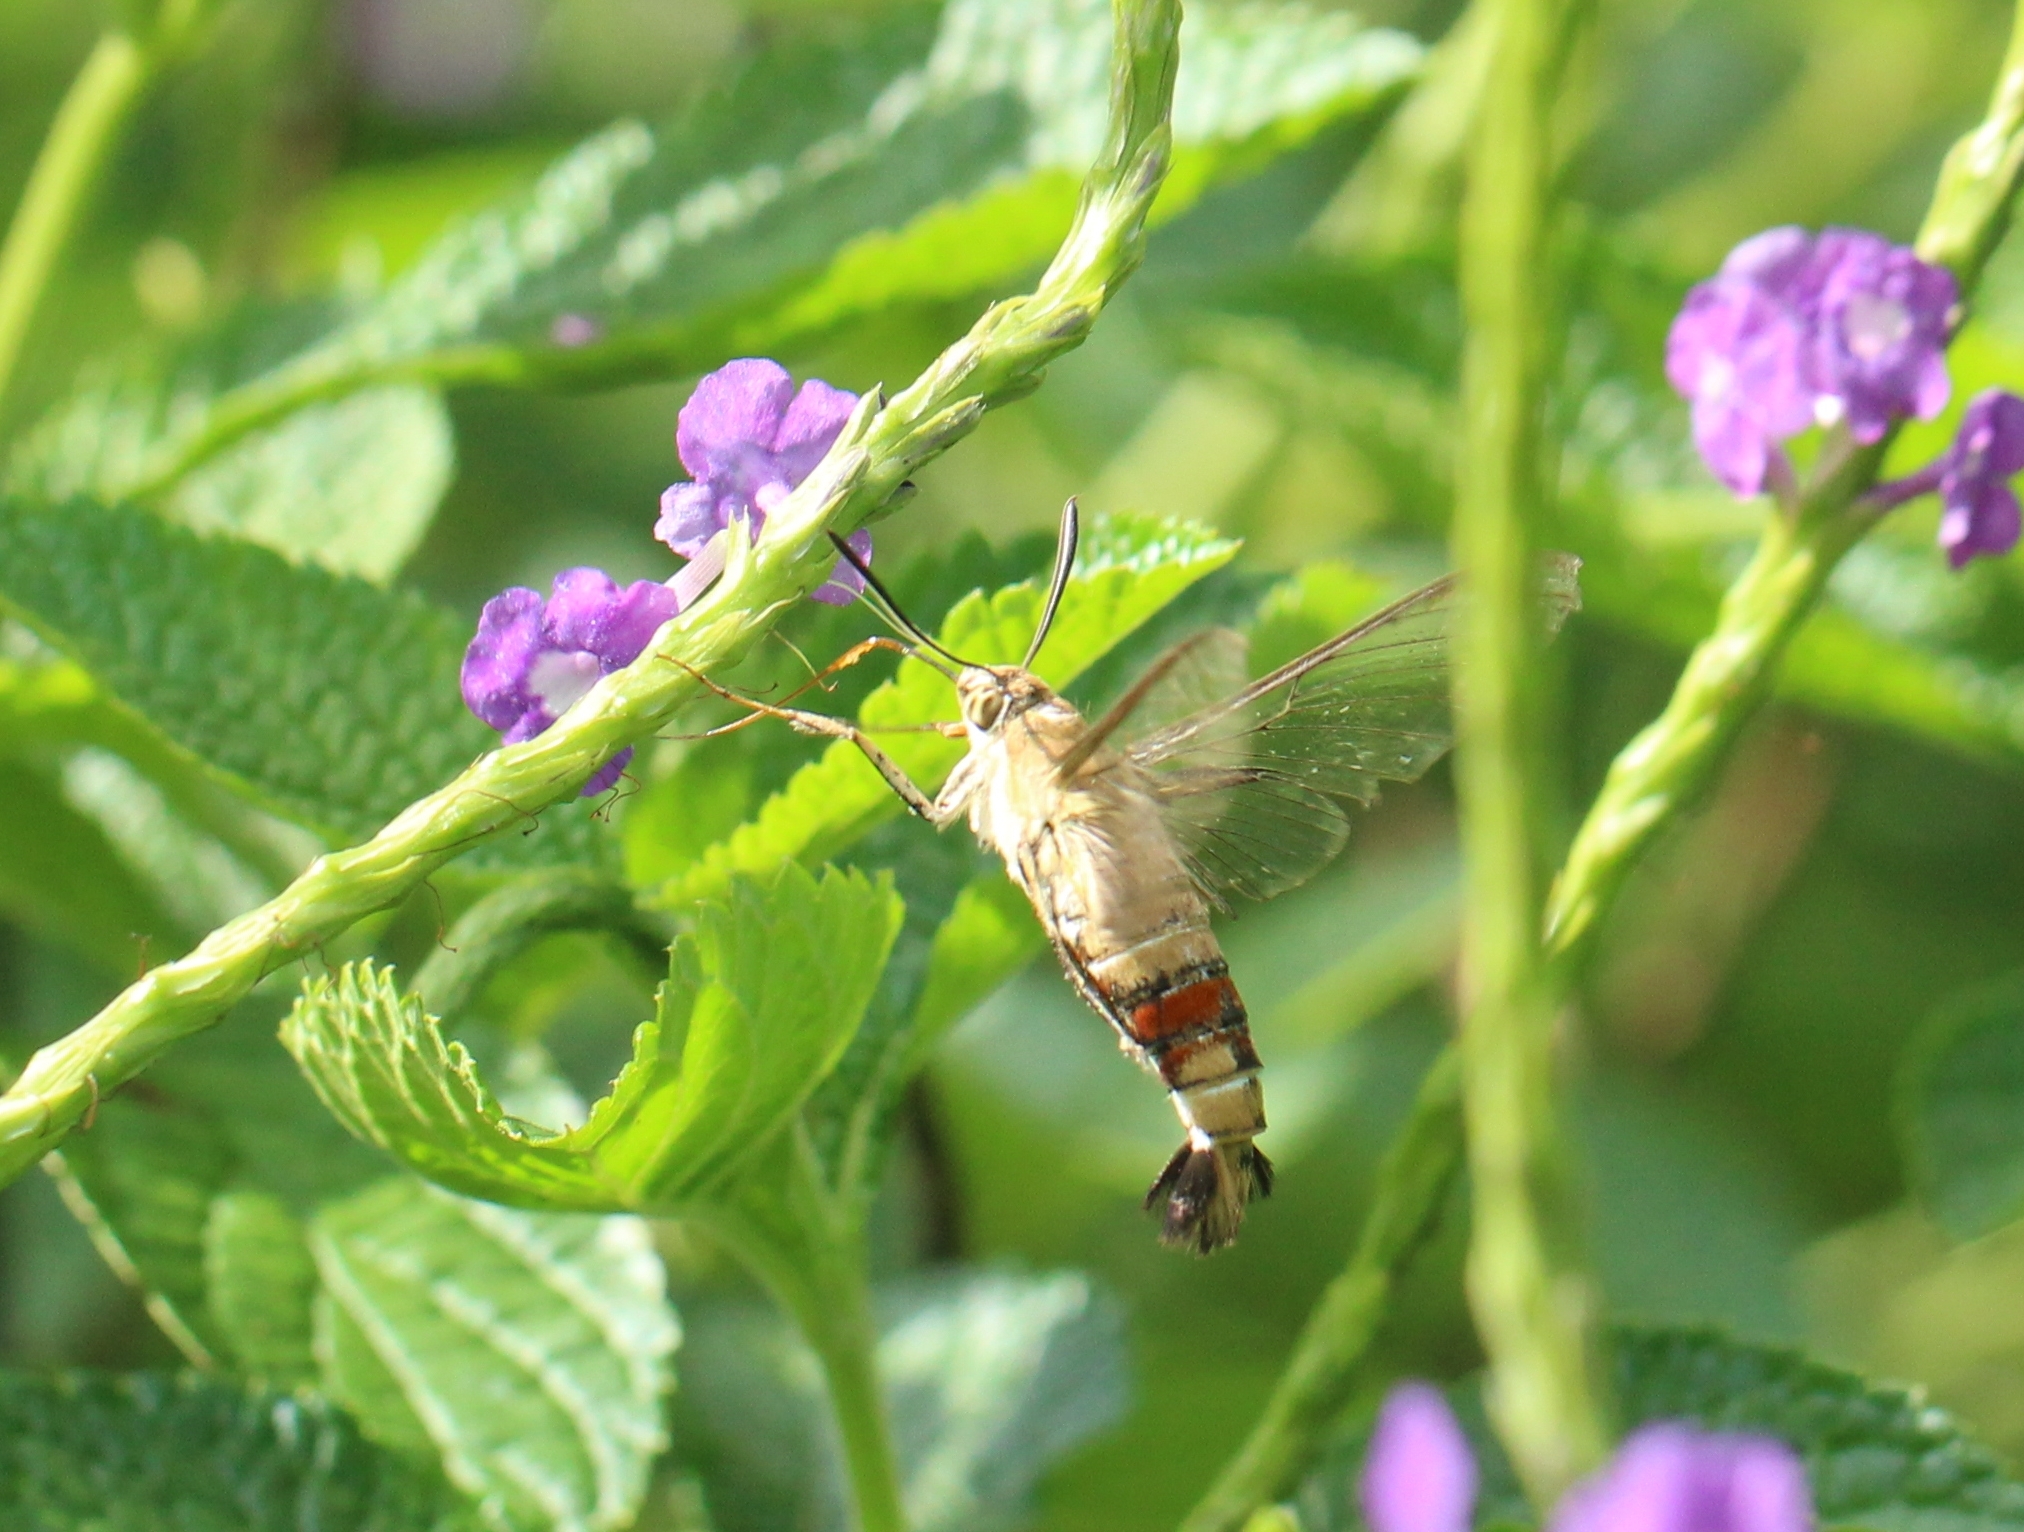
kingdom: Animalia
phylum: Arthropoda
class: Insecta
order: Lepidoptera
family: Sphingidae
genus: Cephonodes
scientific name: Cephonodes hylas
